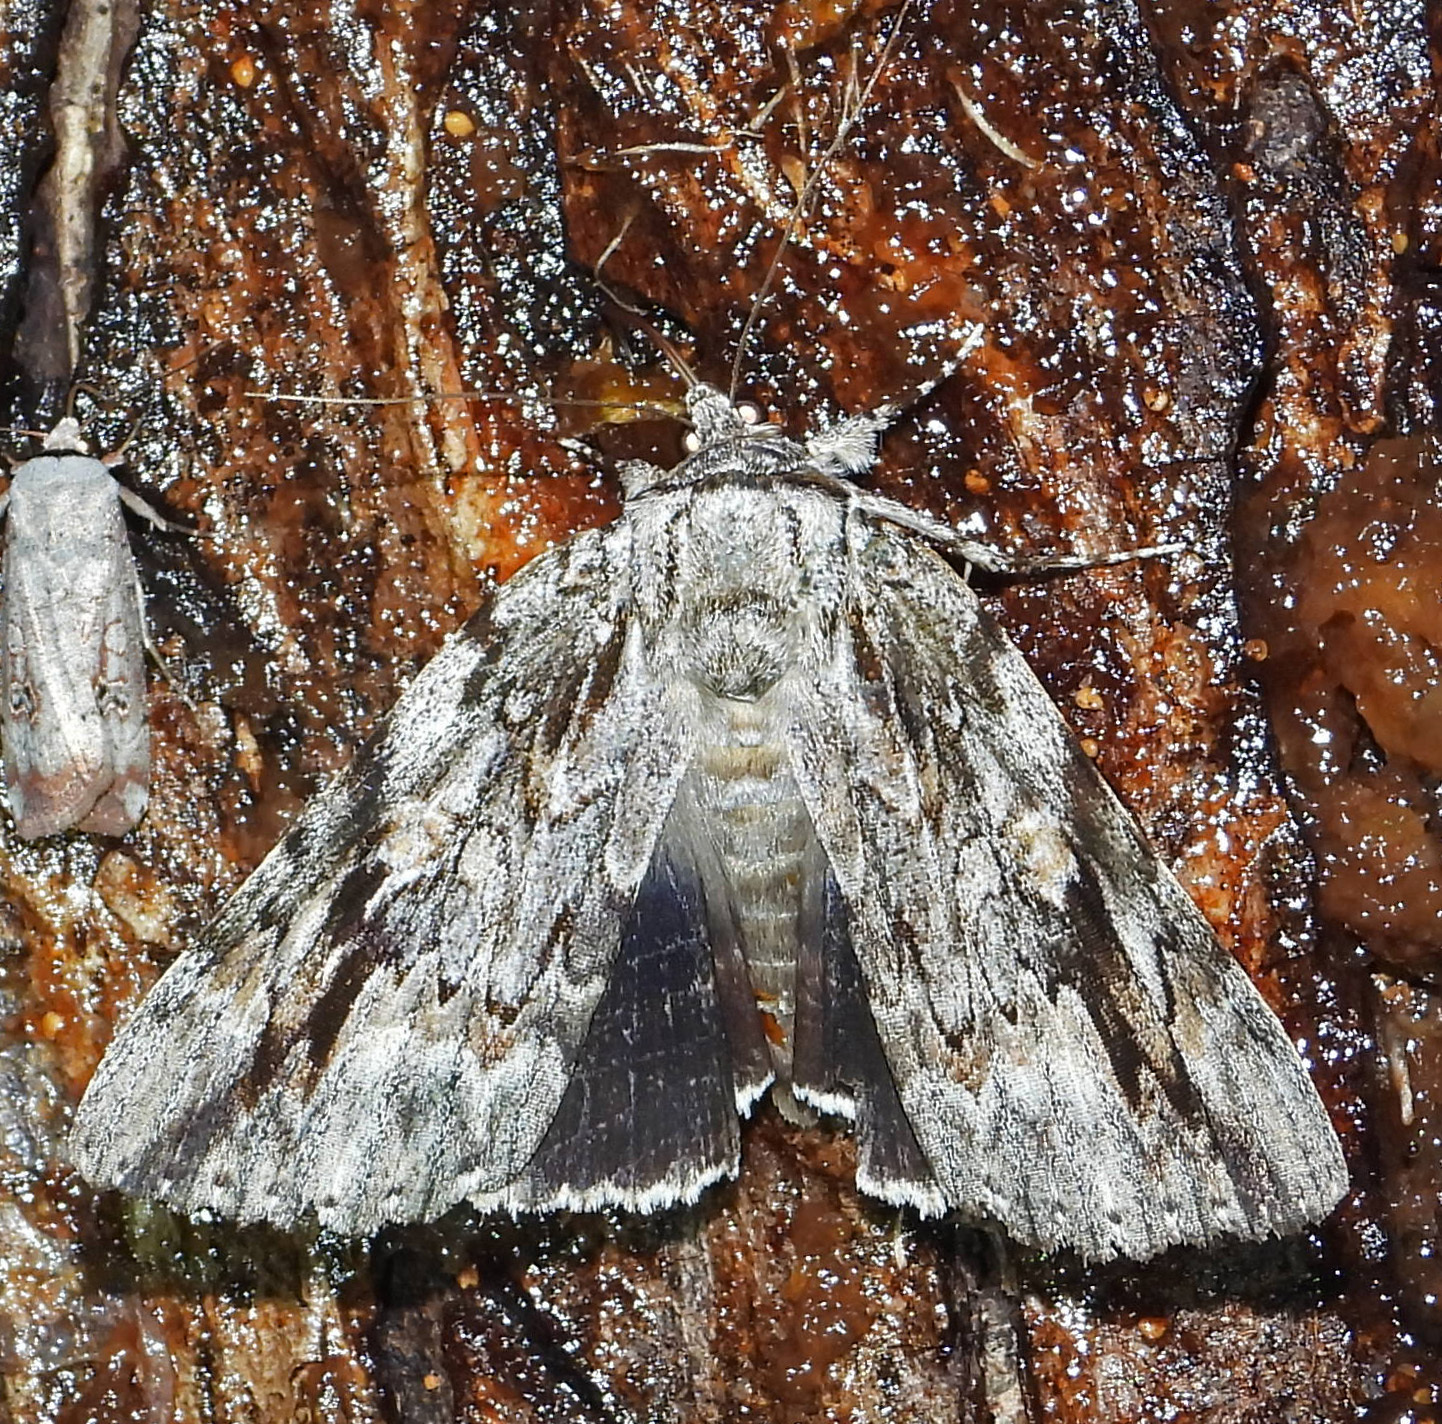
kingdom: Animalia
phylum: Arthropoda
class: Insecta
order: Lepidoptera
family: Erebidae
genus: Catocala
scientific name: Catocala maestosa
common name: Sad underwing
